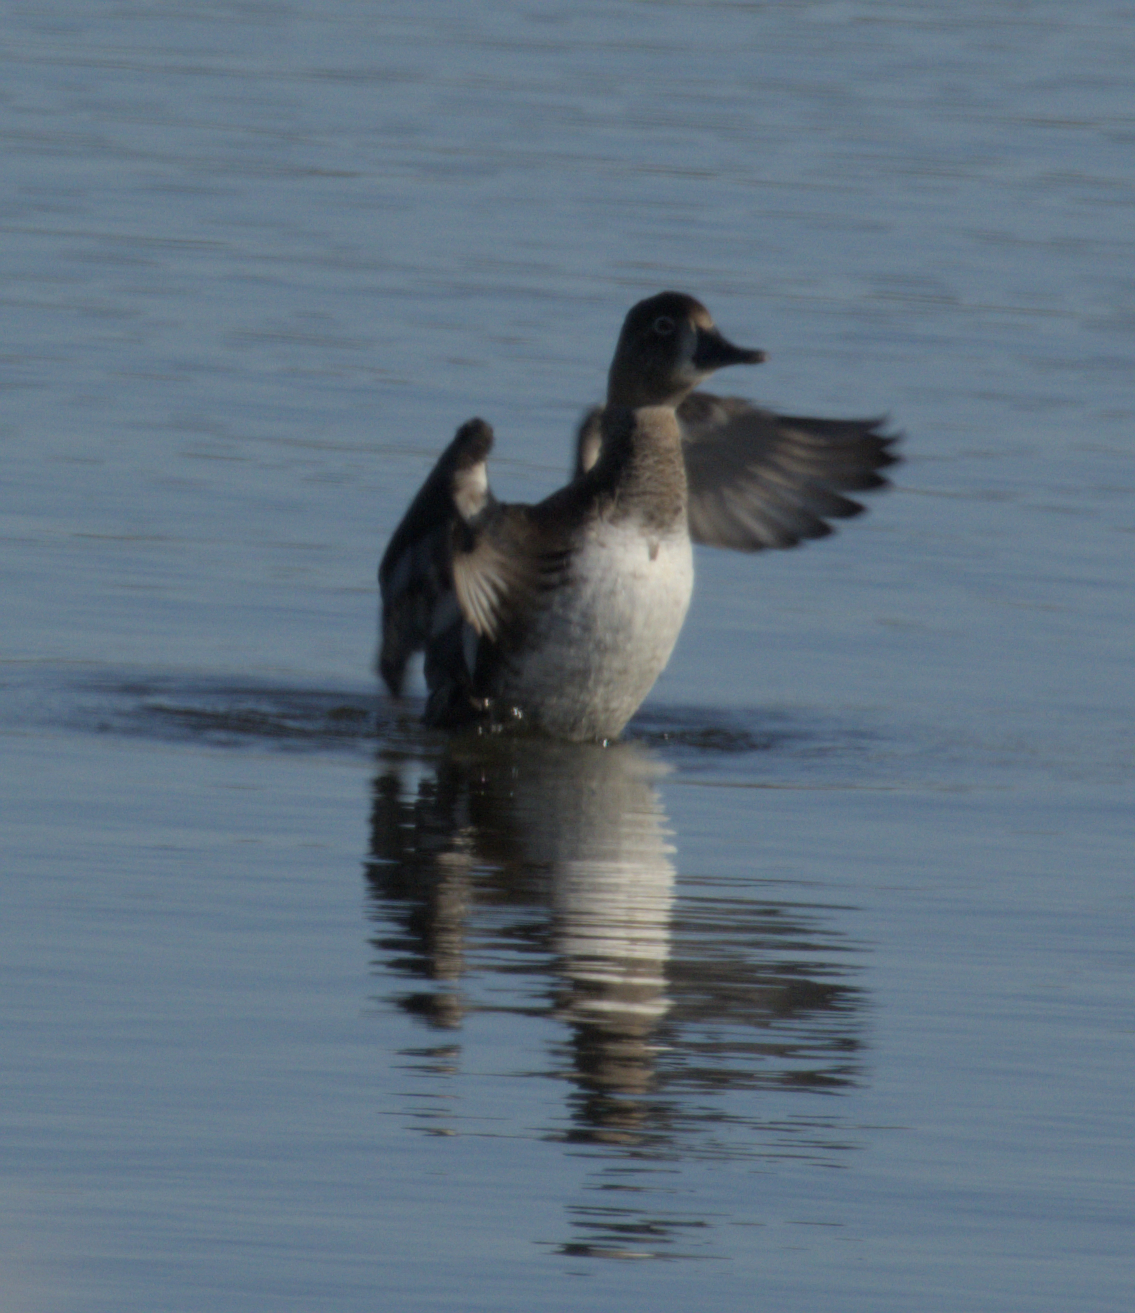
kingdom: Animalia
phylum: Chordata
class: Aves
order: Anseriformes
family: Anatidae
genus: Aythya
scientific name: Aythya collaris
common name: Ring-necked duck
